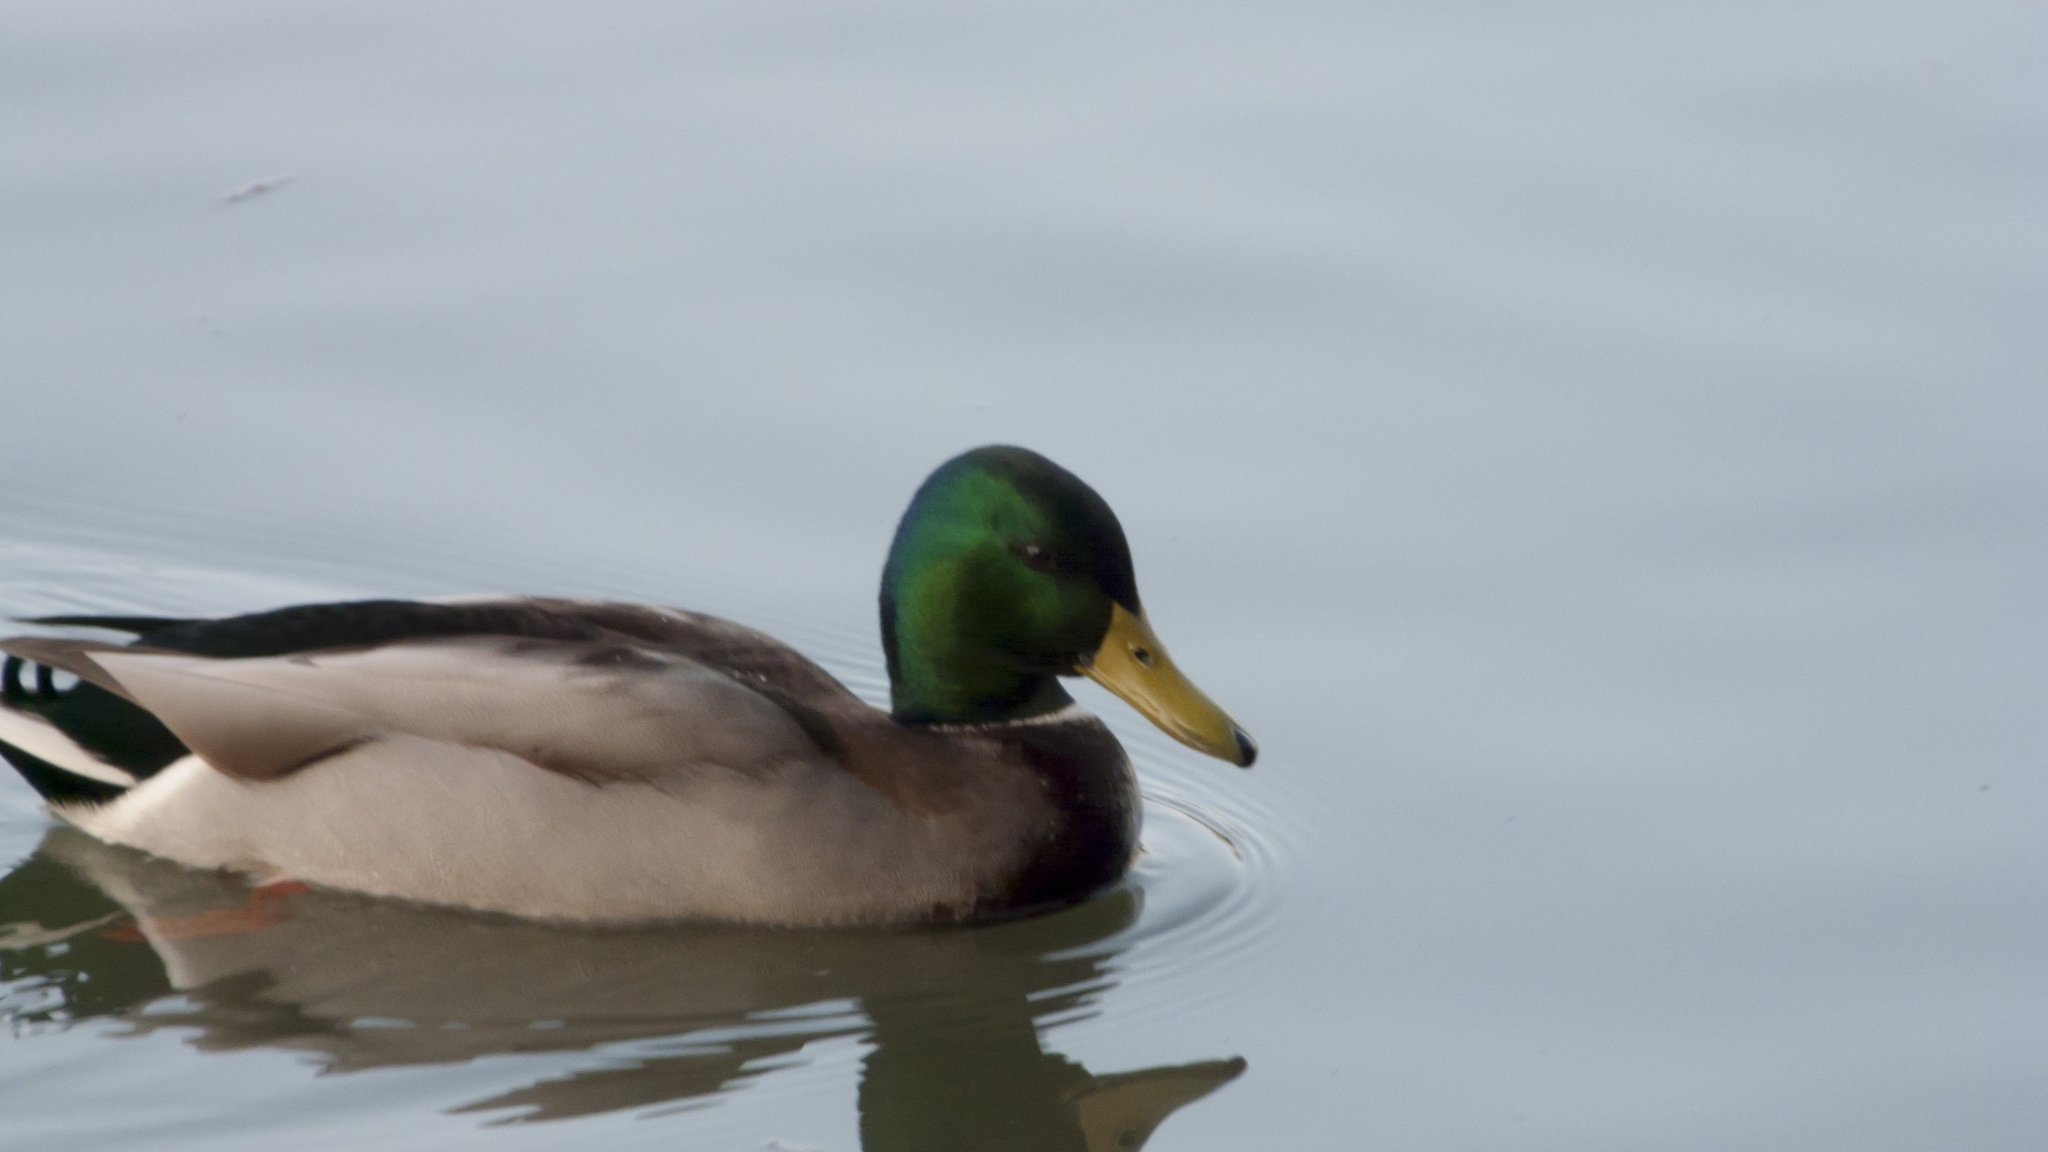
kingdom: Animalia
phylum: Chordata
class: Aves
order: Anseriformes
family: Anatidae
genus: Anas
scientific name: Anas platyrhynchos
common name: Mallard
